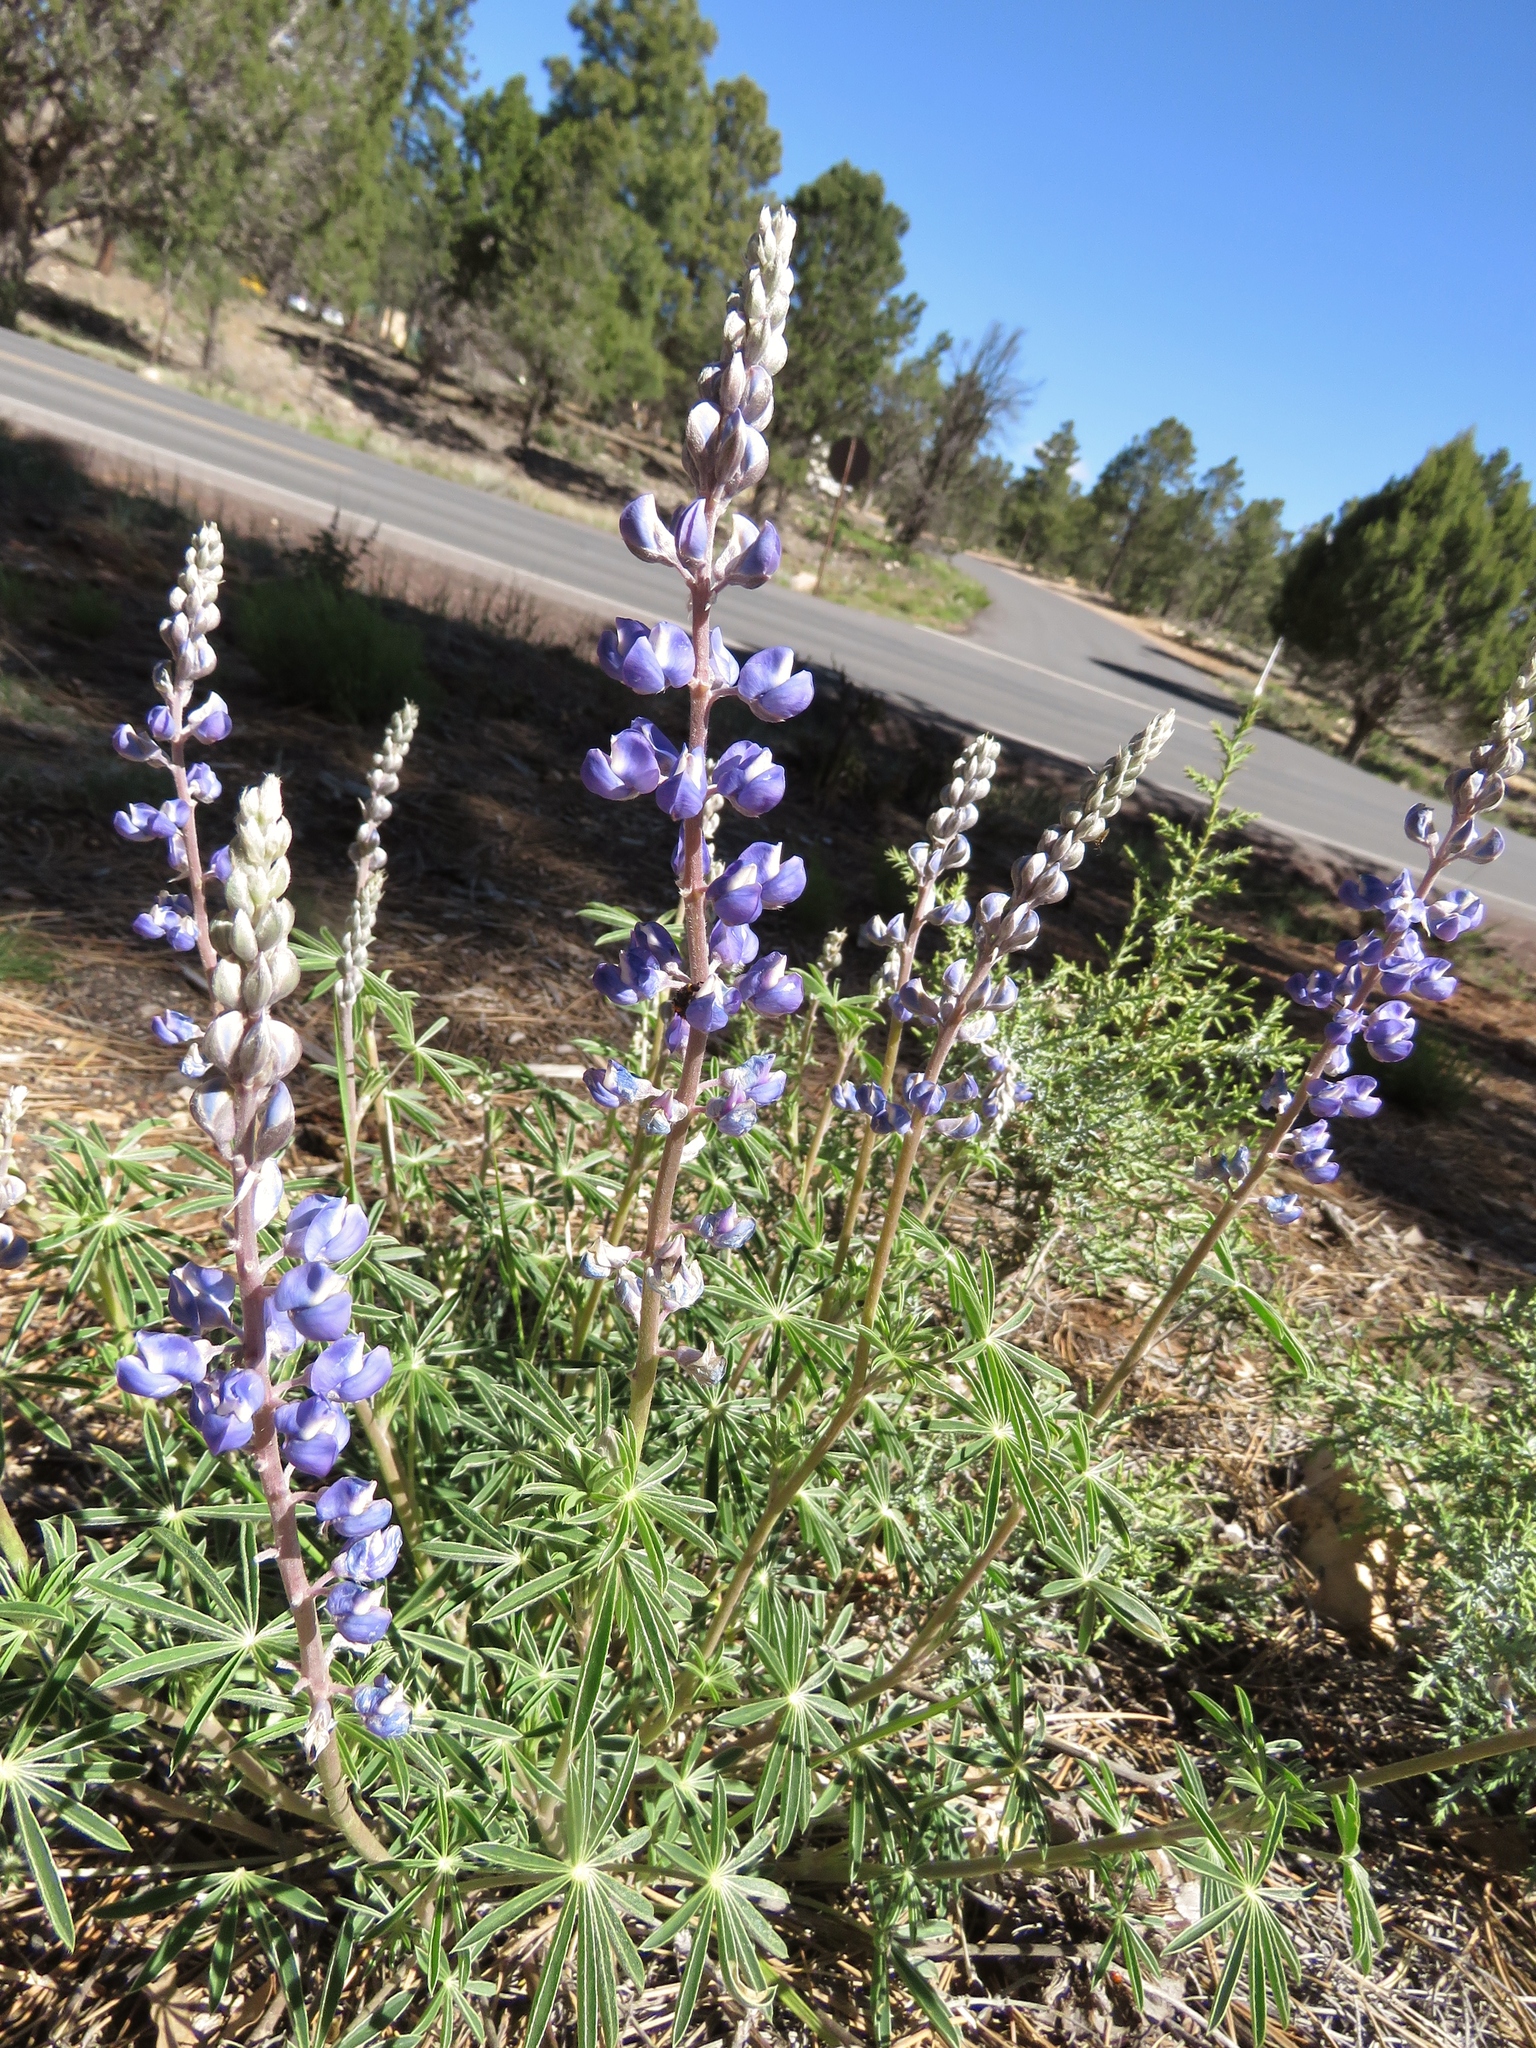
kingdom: Plantae
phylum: Tracheophyta
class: Magnoliopsida
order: Fabales
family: Fabaceae
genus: Lupinus
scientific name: Lupinus argenteus
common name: Silvery lupine
